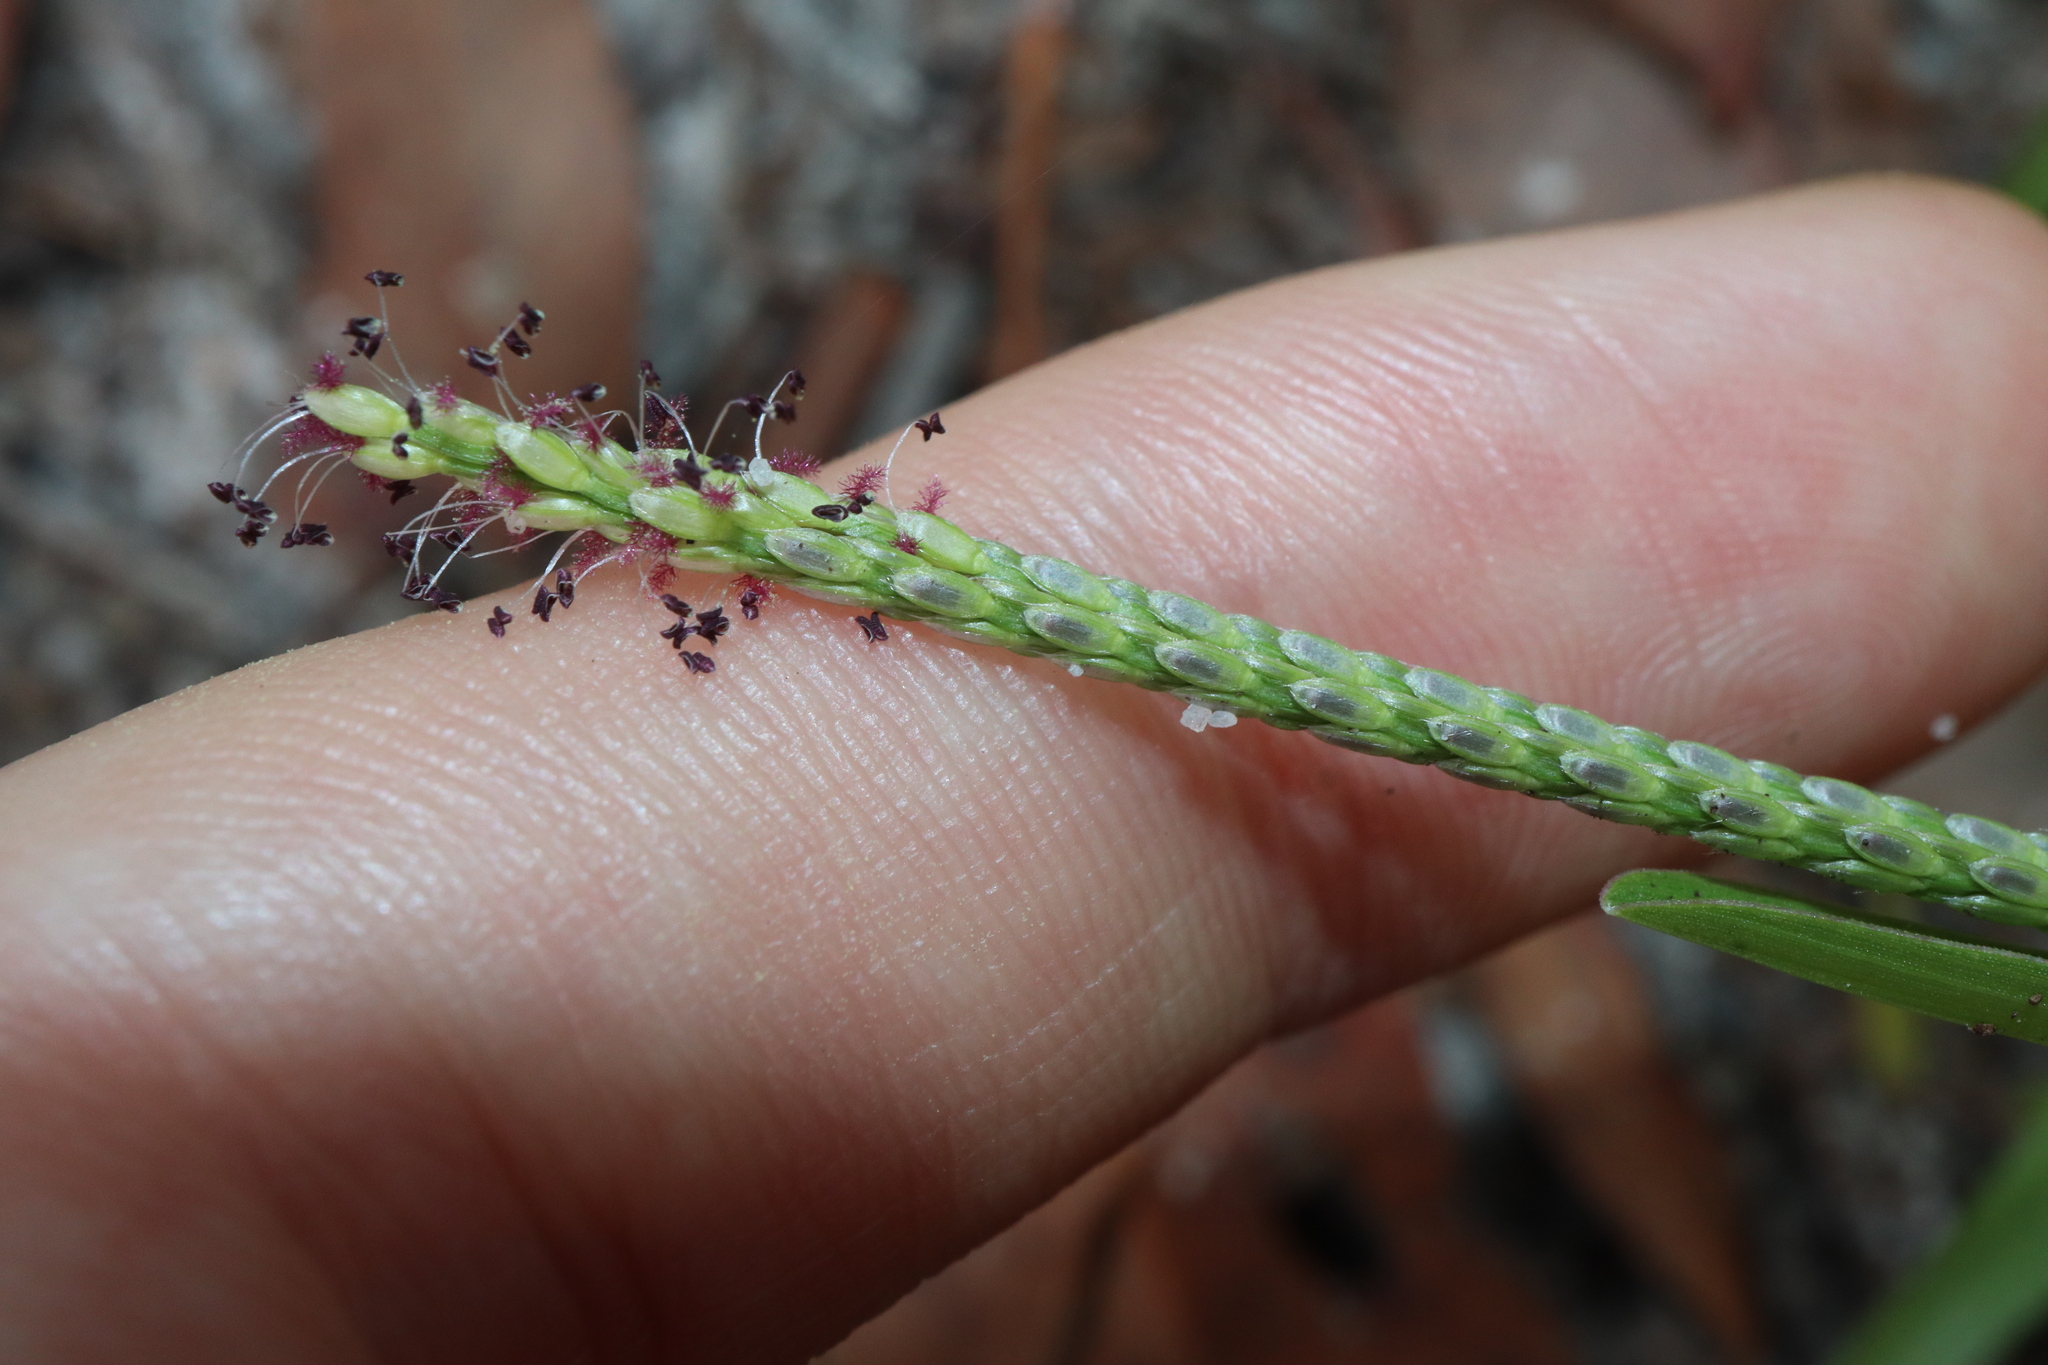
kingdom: Plantae
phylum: Tracheophyta
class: Liliopsida
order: Poales
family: Poaceae
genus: Axonopus
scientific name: Axonopus fissifolius
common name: Common carpetgrass
